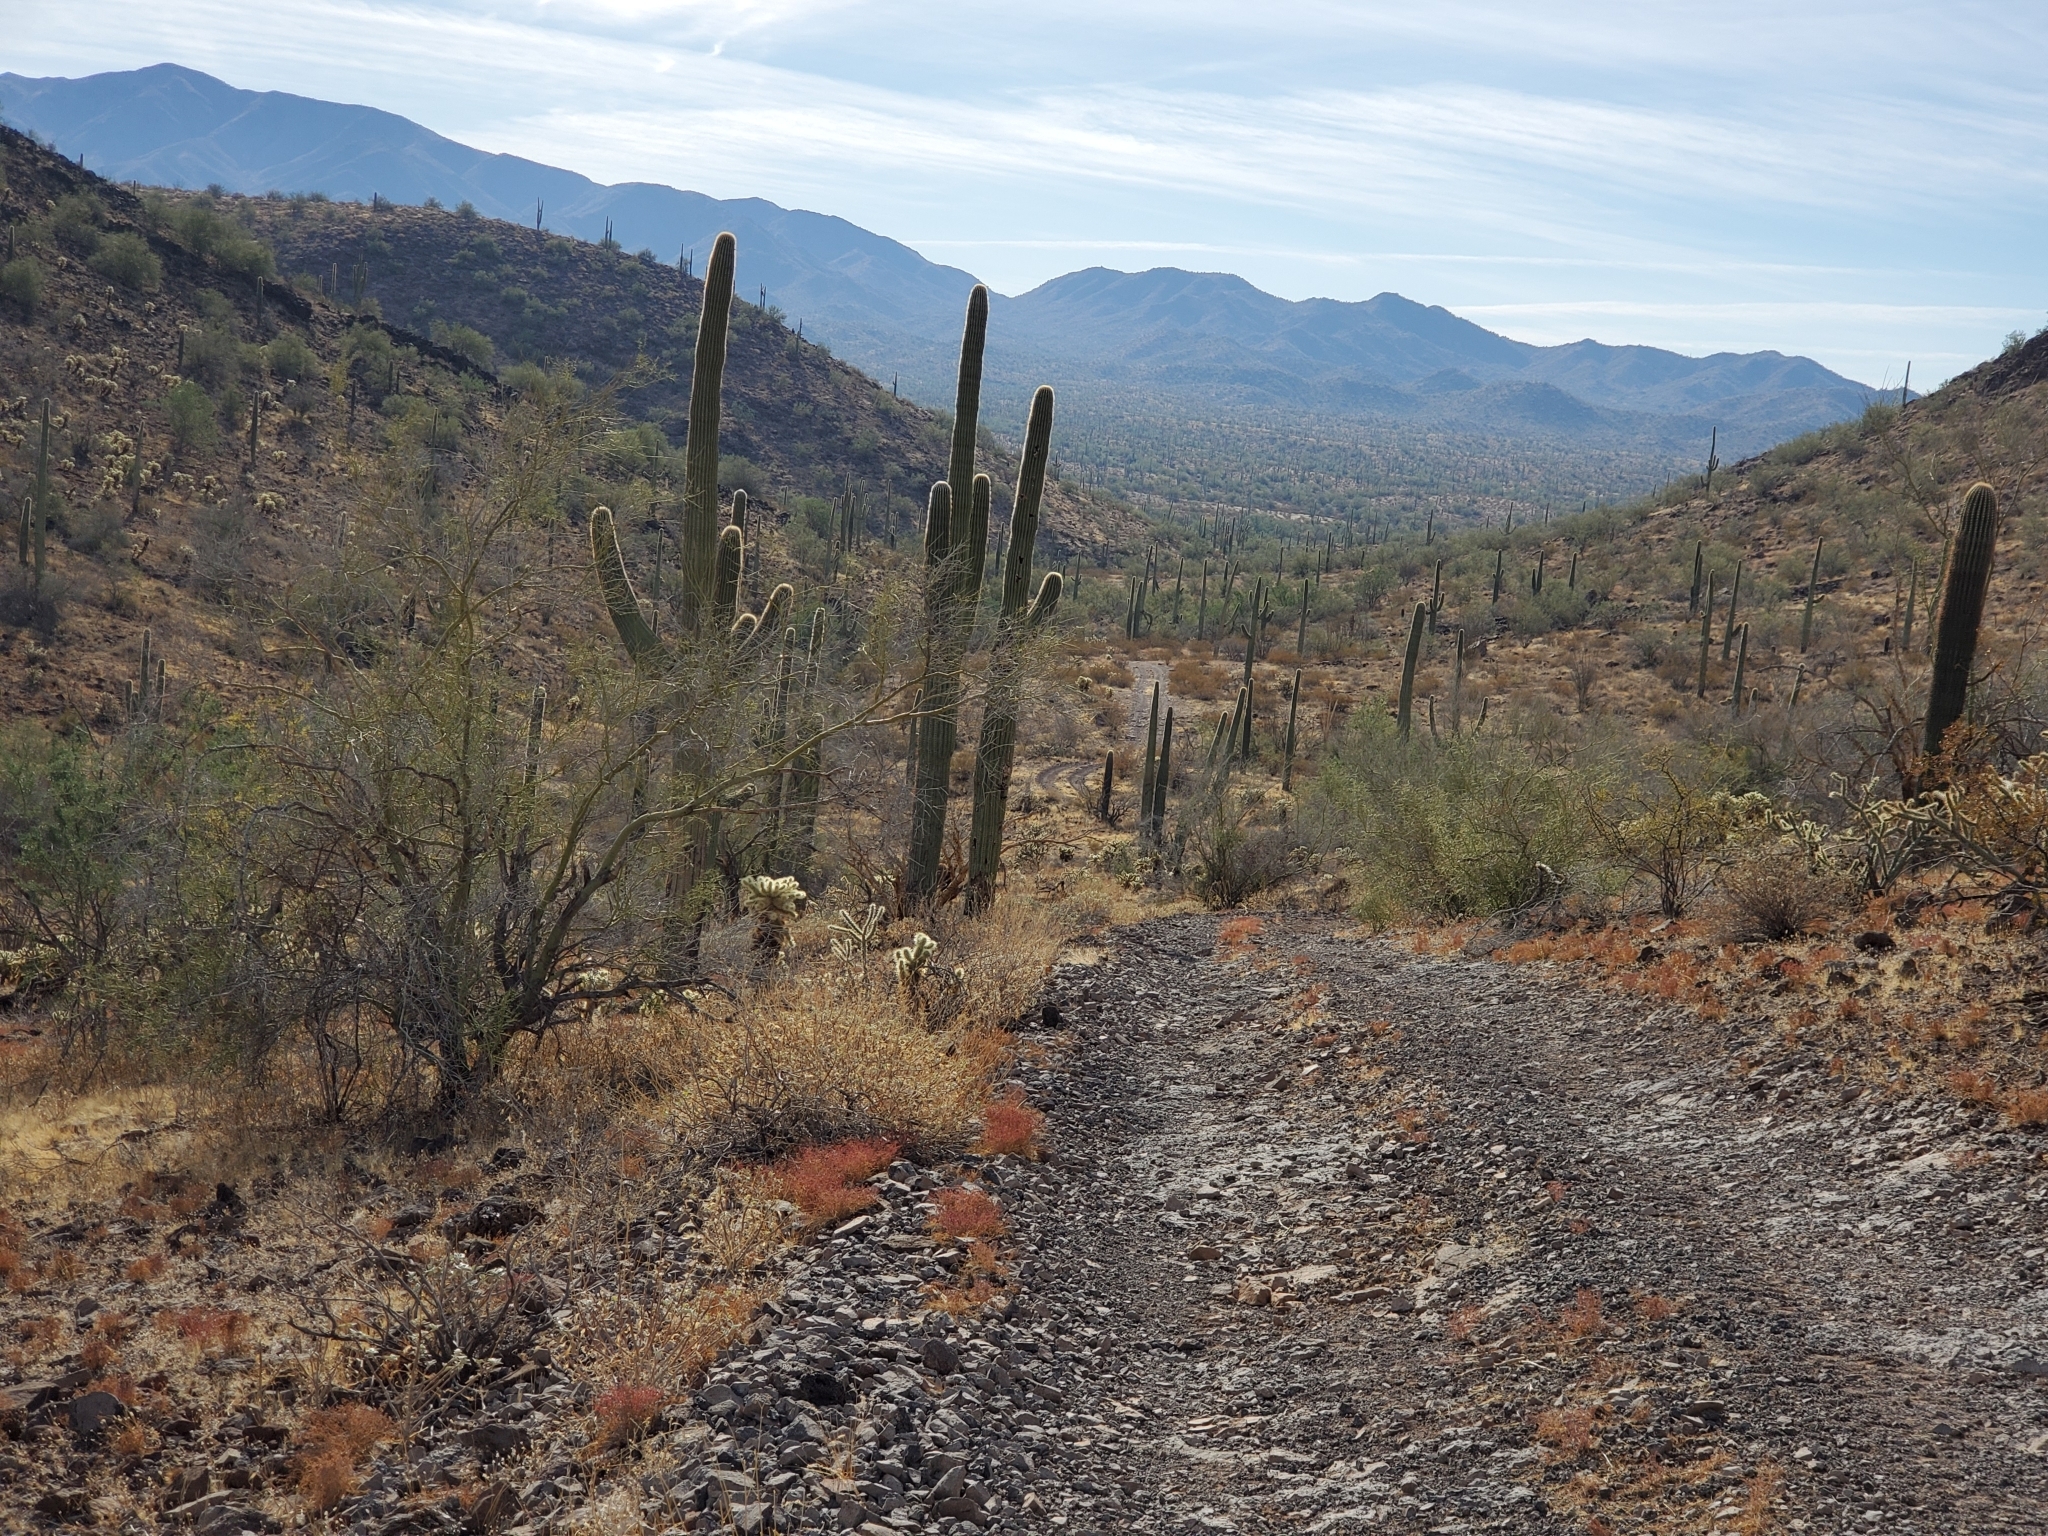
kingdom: Plantae
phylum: Tracheophyta
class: Magnoliopsida
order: Caryophyllales
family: Cactaceae
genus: Carnegiea
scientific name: Carnegiea gigantea
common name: Saguaro
